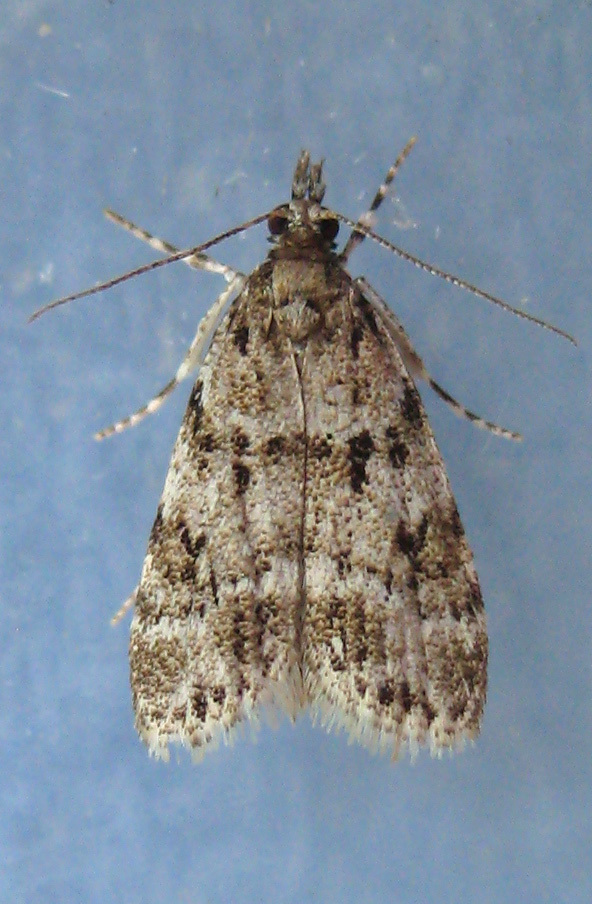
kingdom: Animalia
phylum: Arthropoda
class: Insecta
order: Lepidoptera
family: Crambidae
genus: Scoparia
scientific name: Scoparia basalis
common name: Many-spotted scoparia moth
